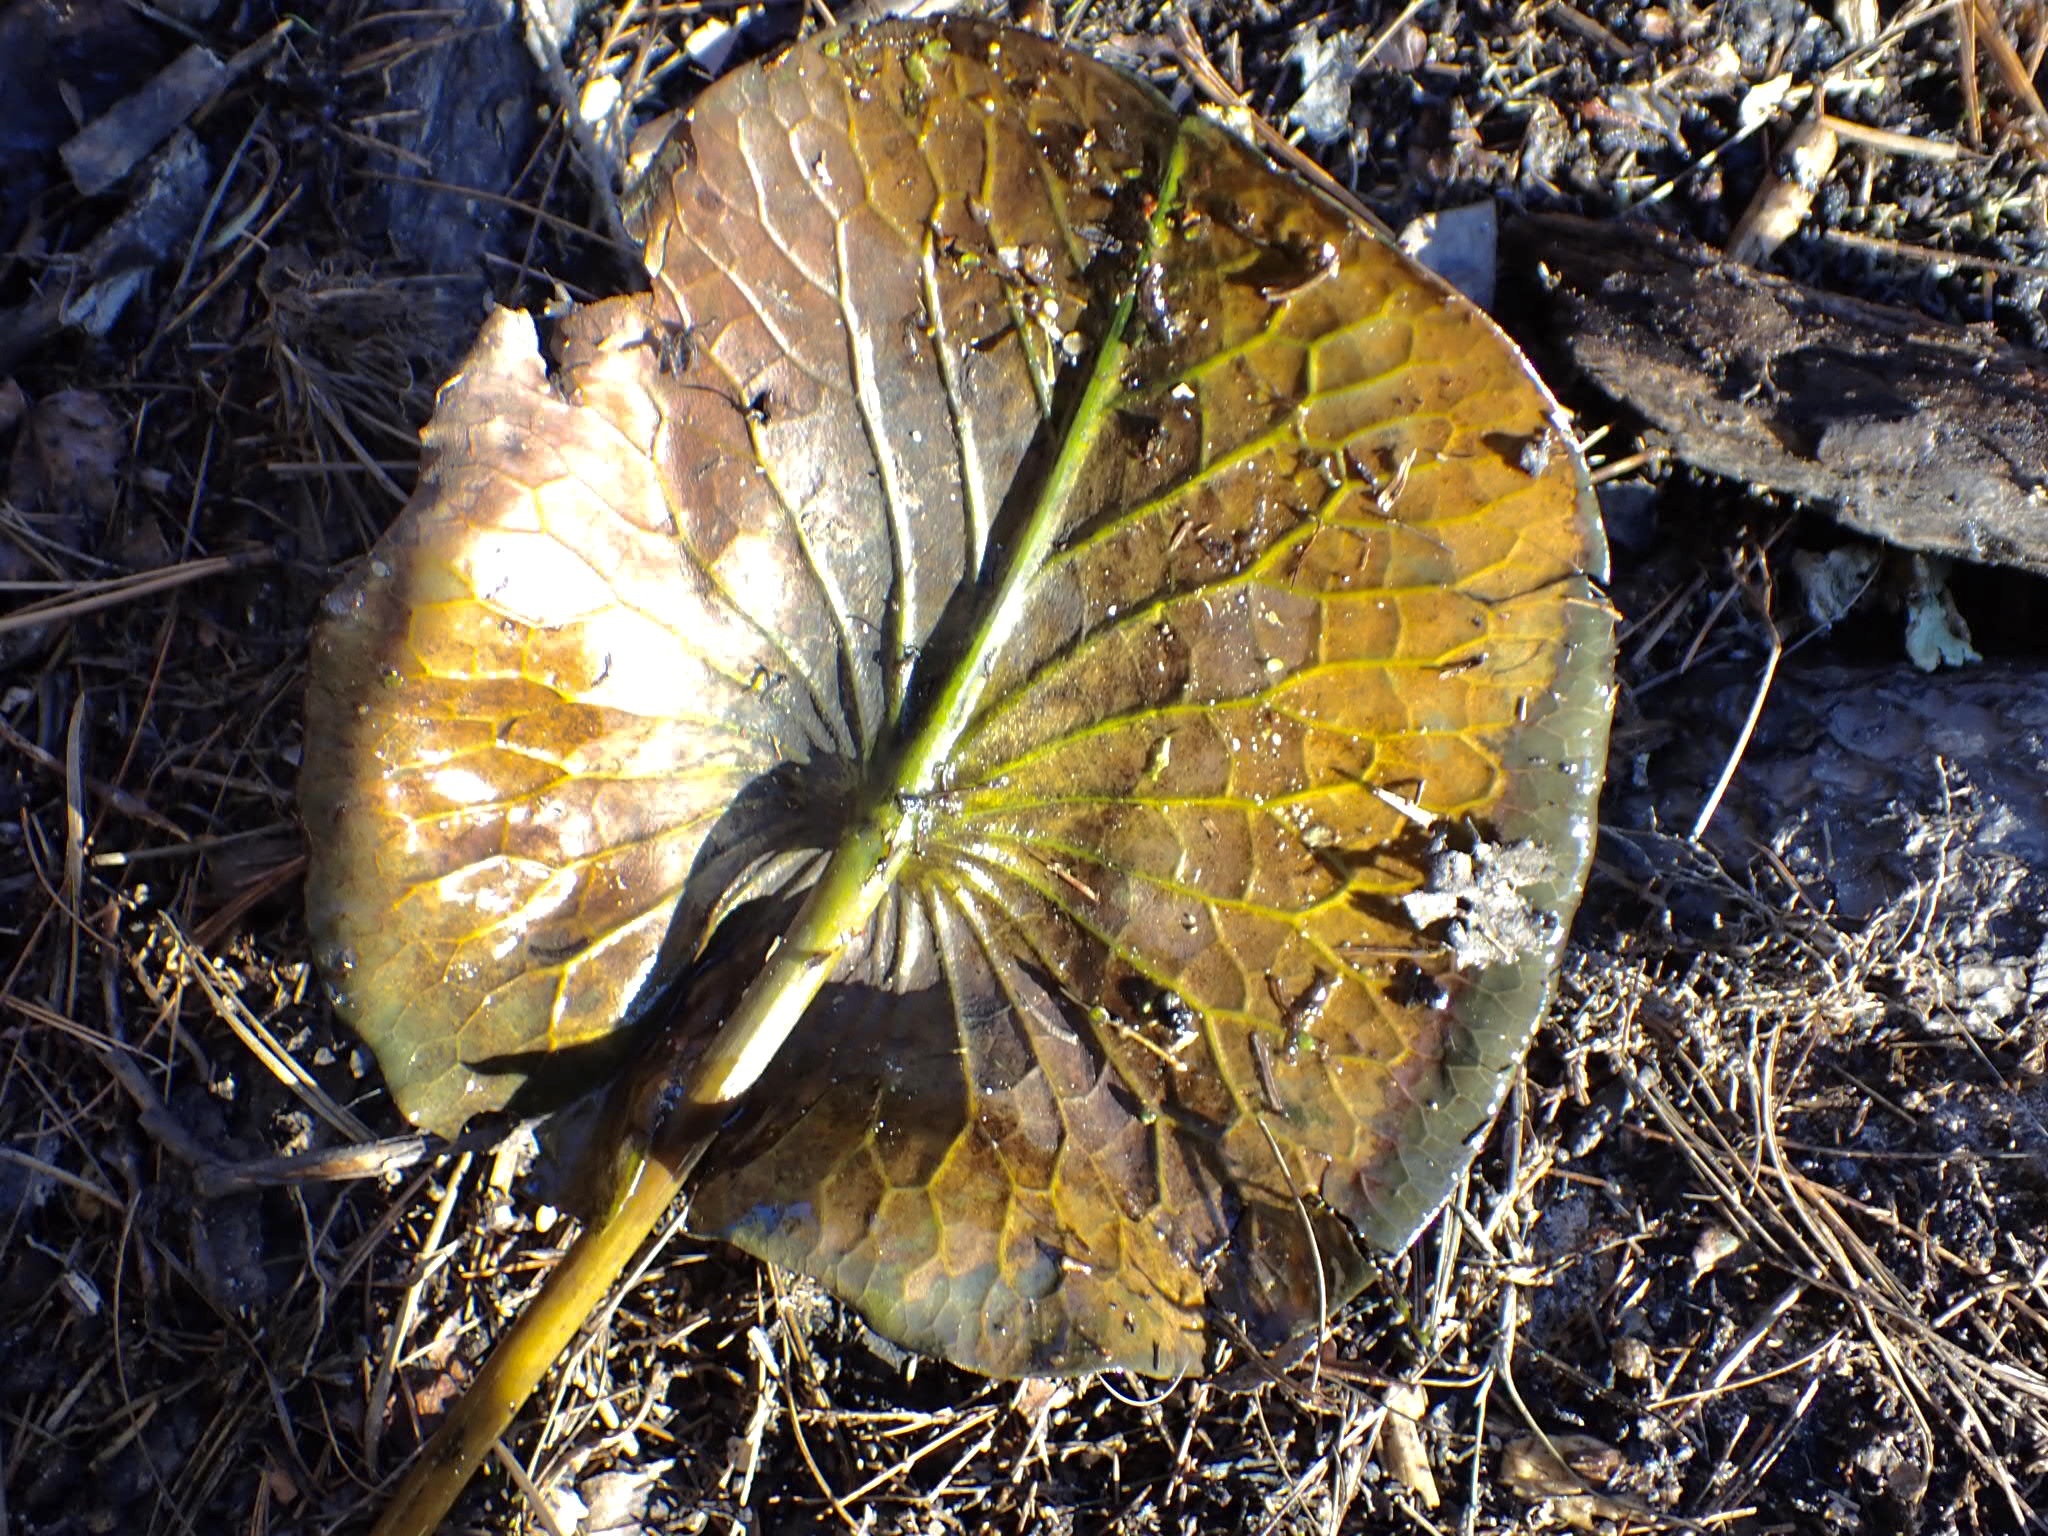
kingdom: Plantae
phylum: Tracheophyta
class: Magnoliopsida
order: Nymphaeales
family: Nymphaeaceae
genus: Nymphaea
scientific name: Nymphaea odorata
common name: Fragrant water-lily
